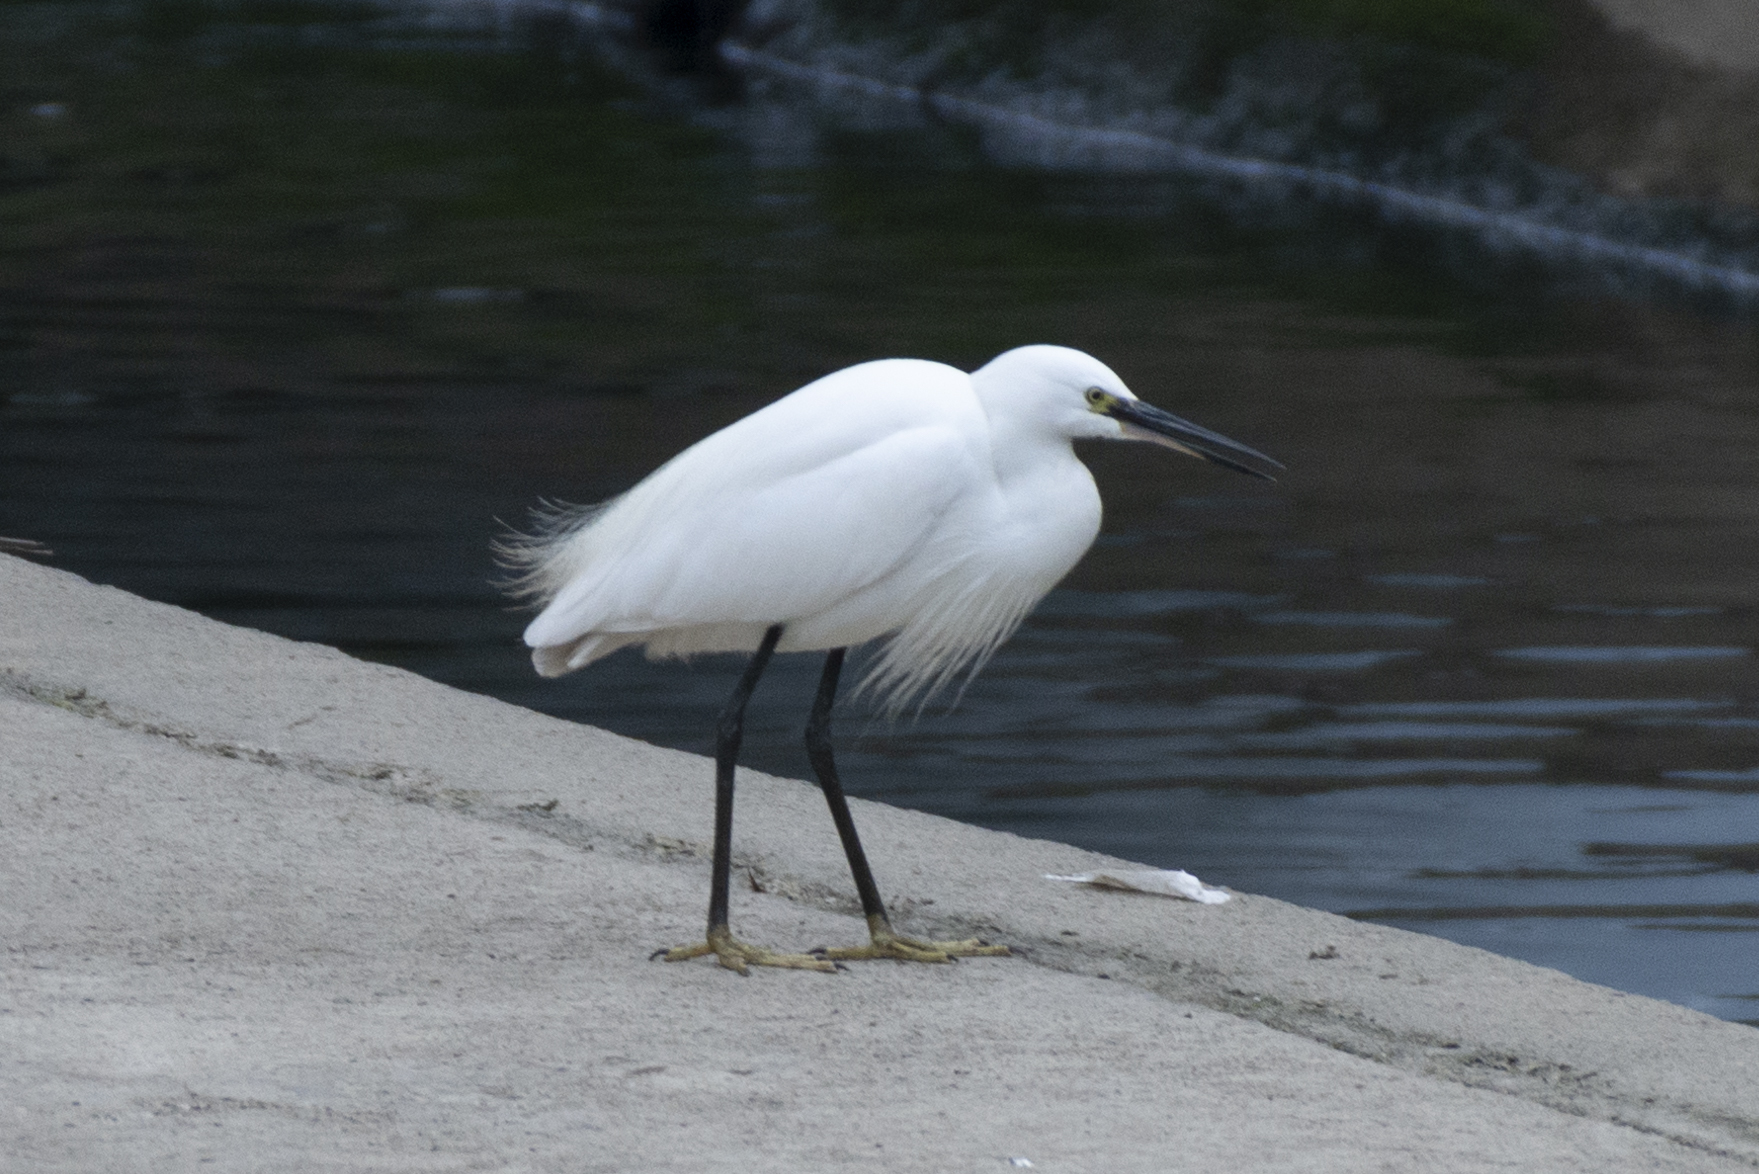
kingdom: Animalia
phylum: Chordata
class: Aves
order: Pelecaniformes
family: Ardeidae
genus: Egretta
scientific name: Egretta garzetta
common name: Little egret
